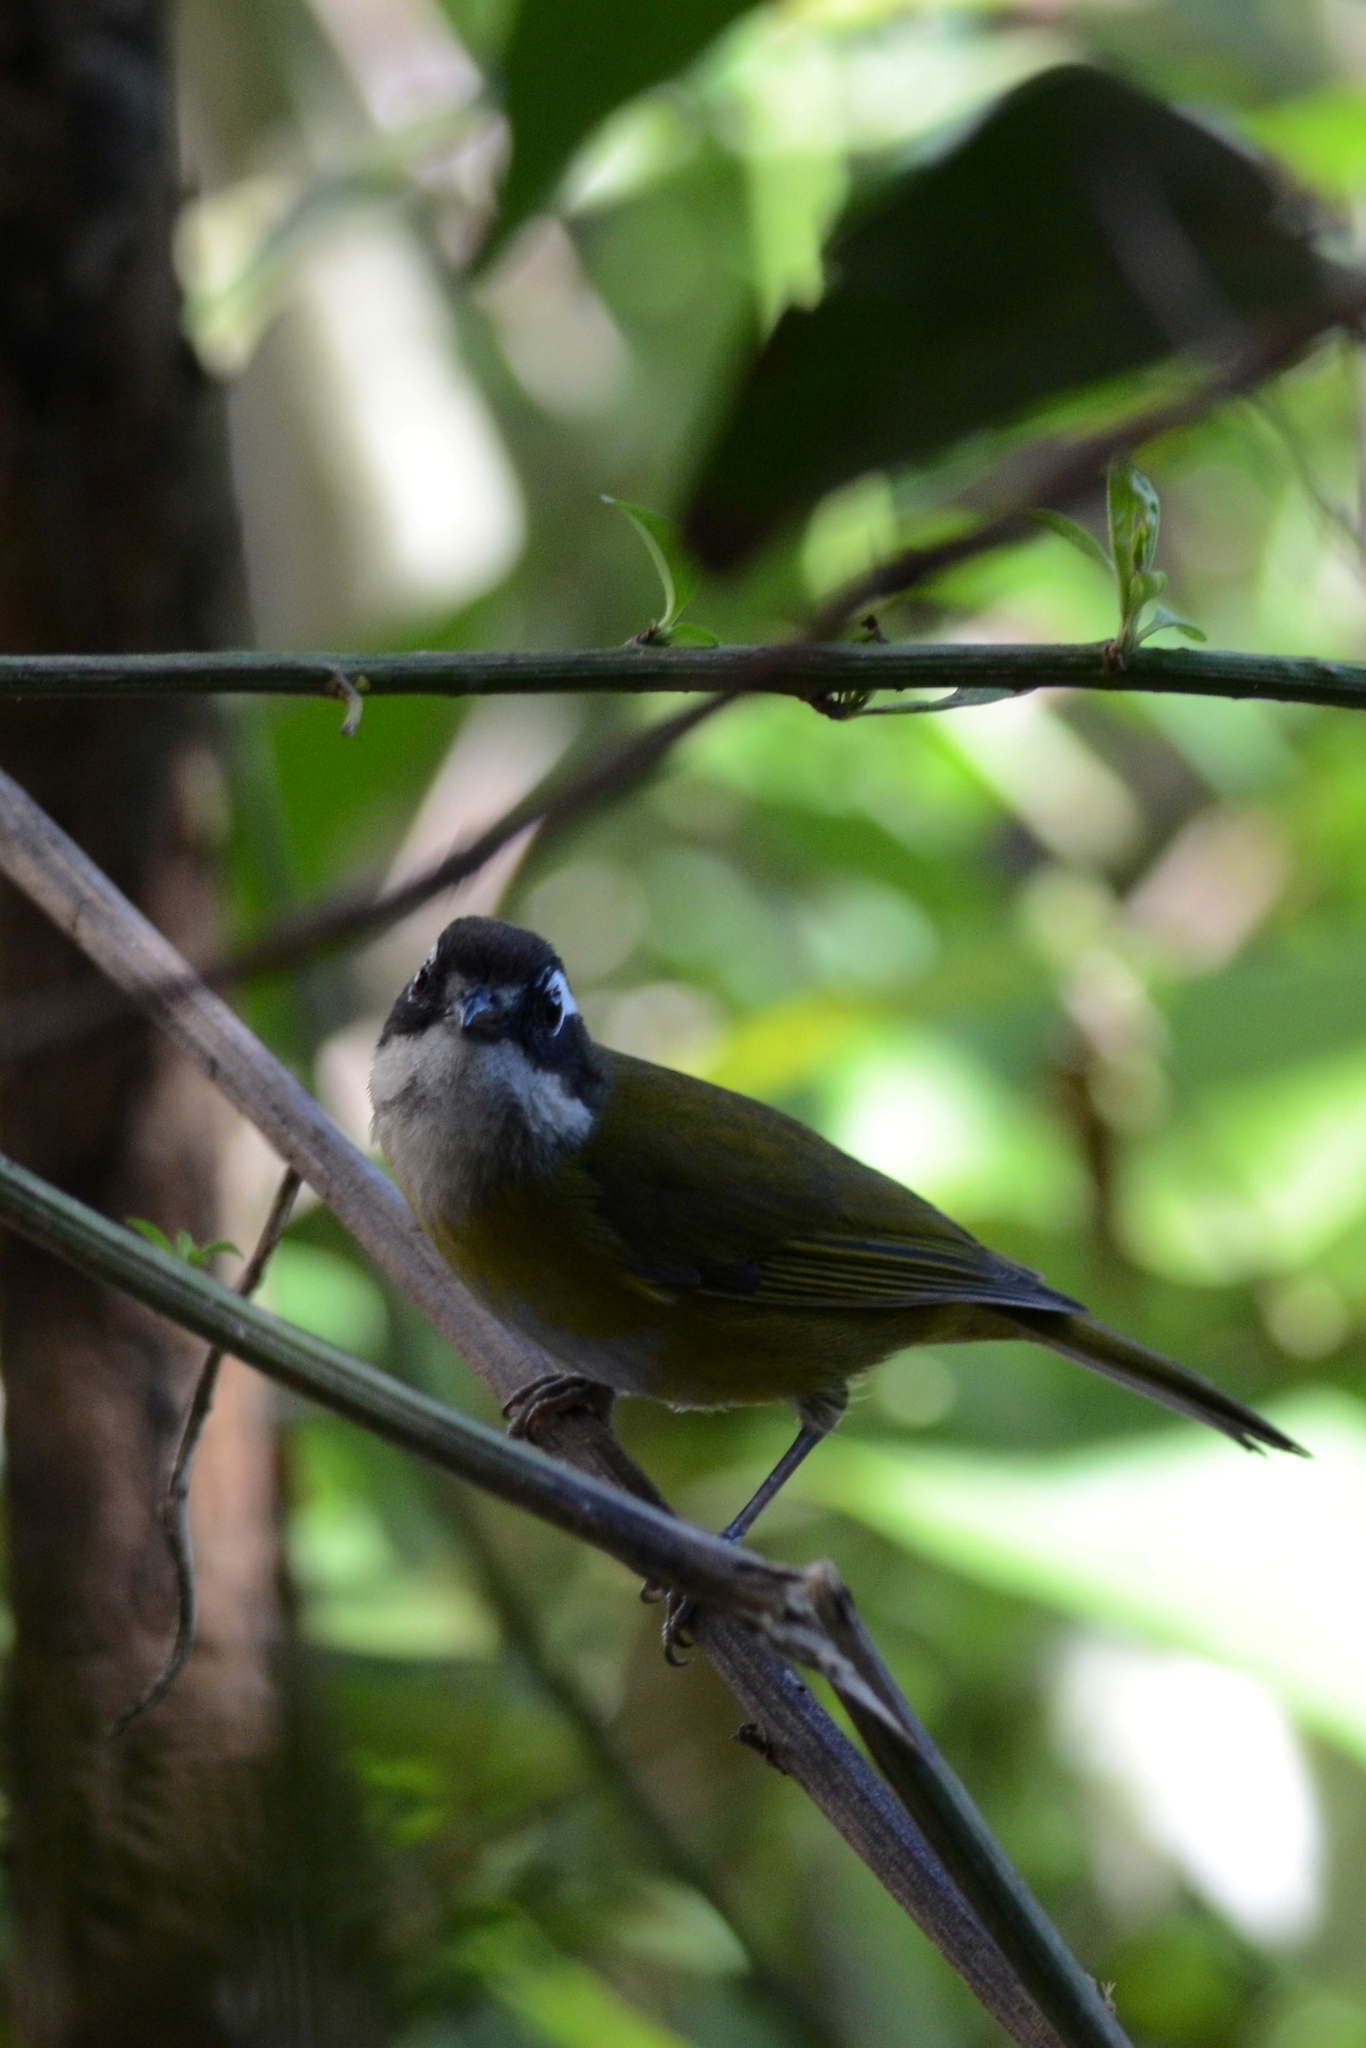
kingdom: Animalia
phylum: Chordata
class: Aves
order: Passeriformes
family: Passerellidae
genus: Chlorospingus
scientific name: Chlorospingus flavopectus
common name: Common chlorospingus
